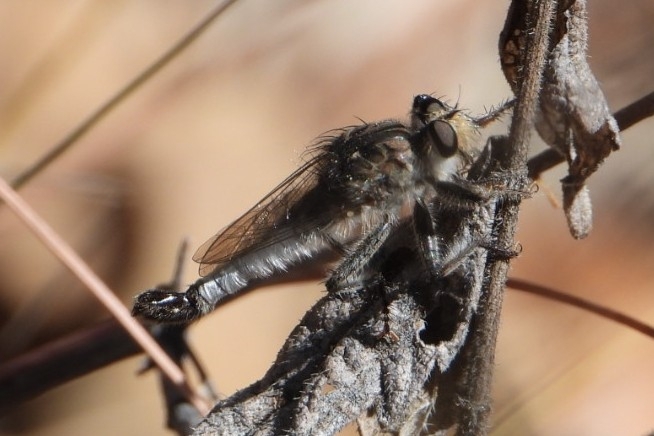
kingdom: Animalia
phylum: Arthropoda
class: Insecta
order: Diptera
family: Asilidae
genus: Efferia
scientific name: Efferia albibarbis
